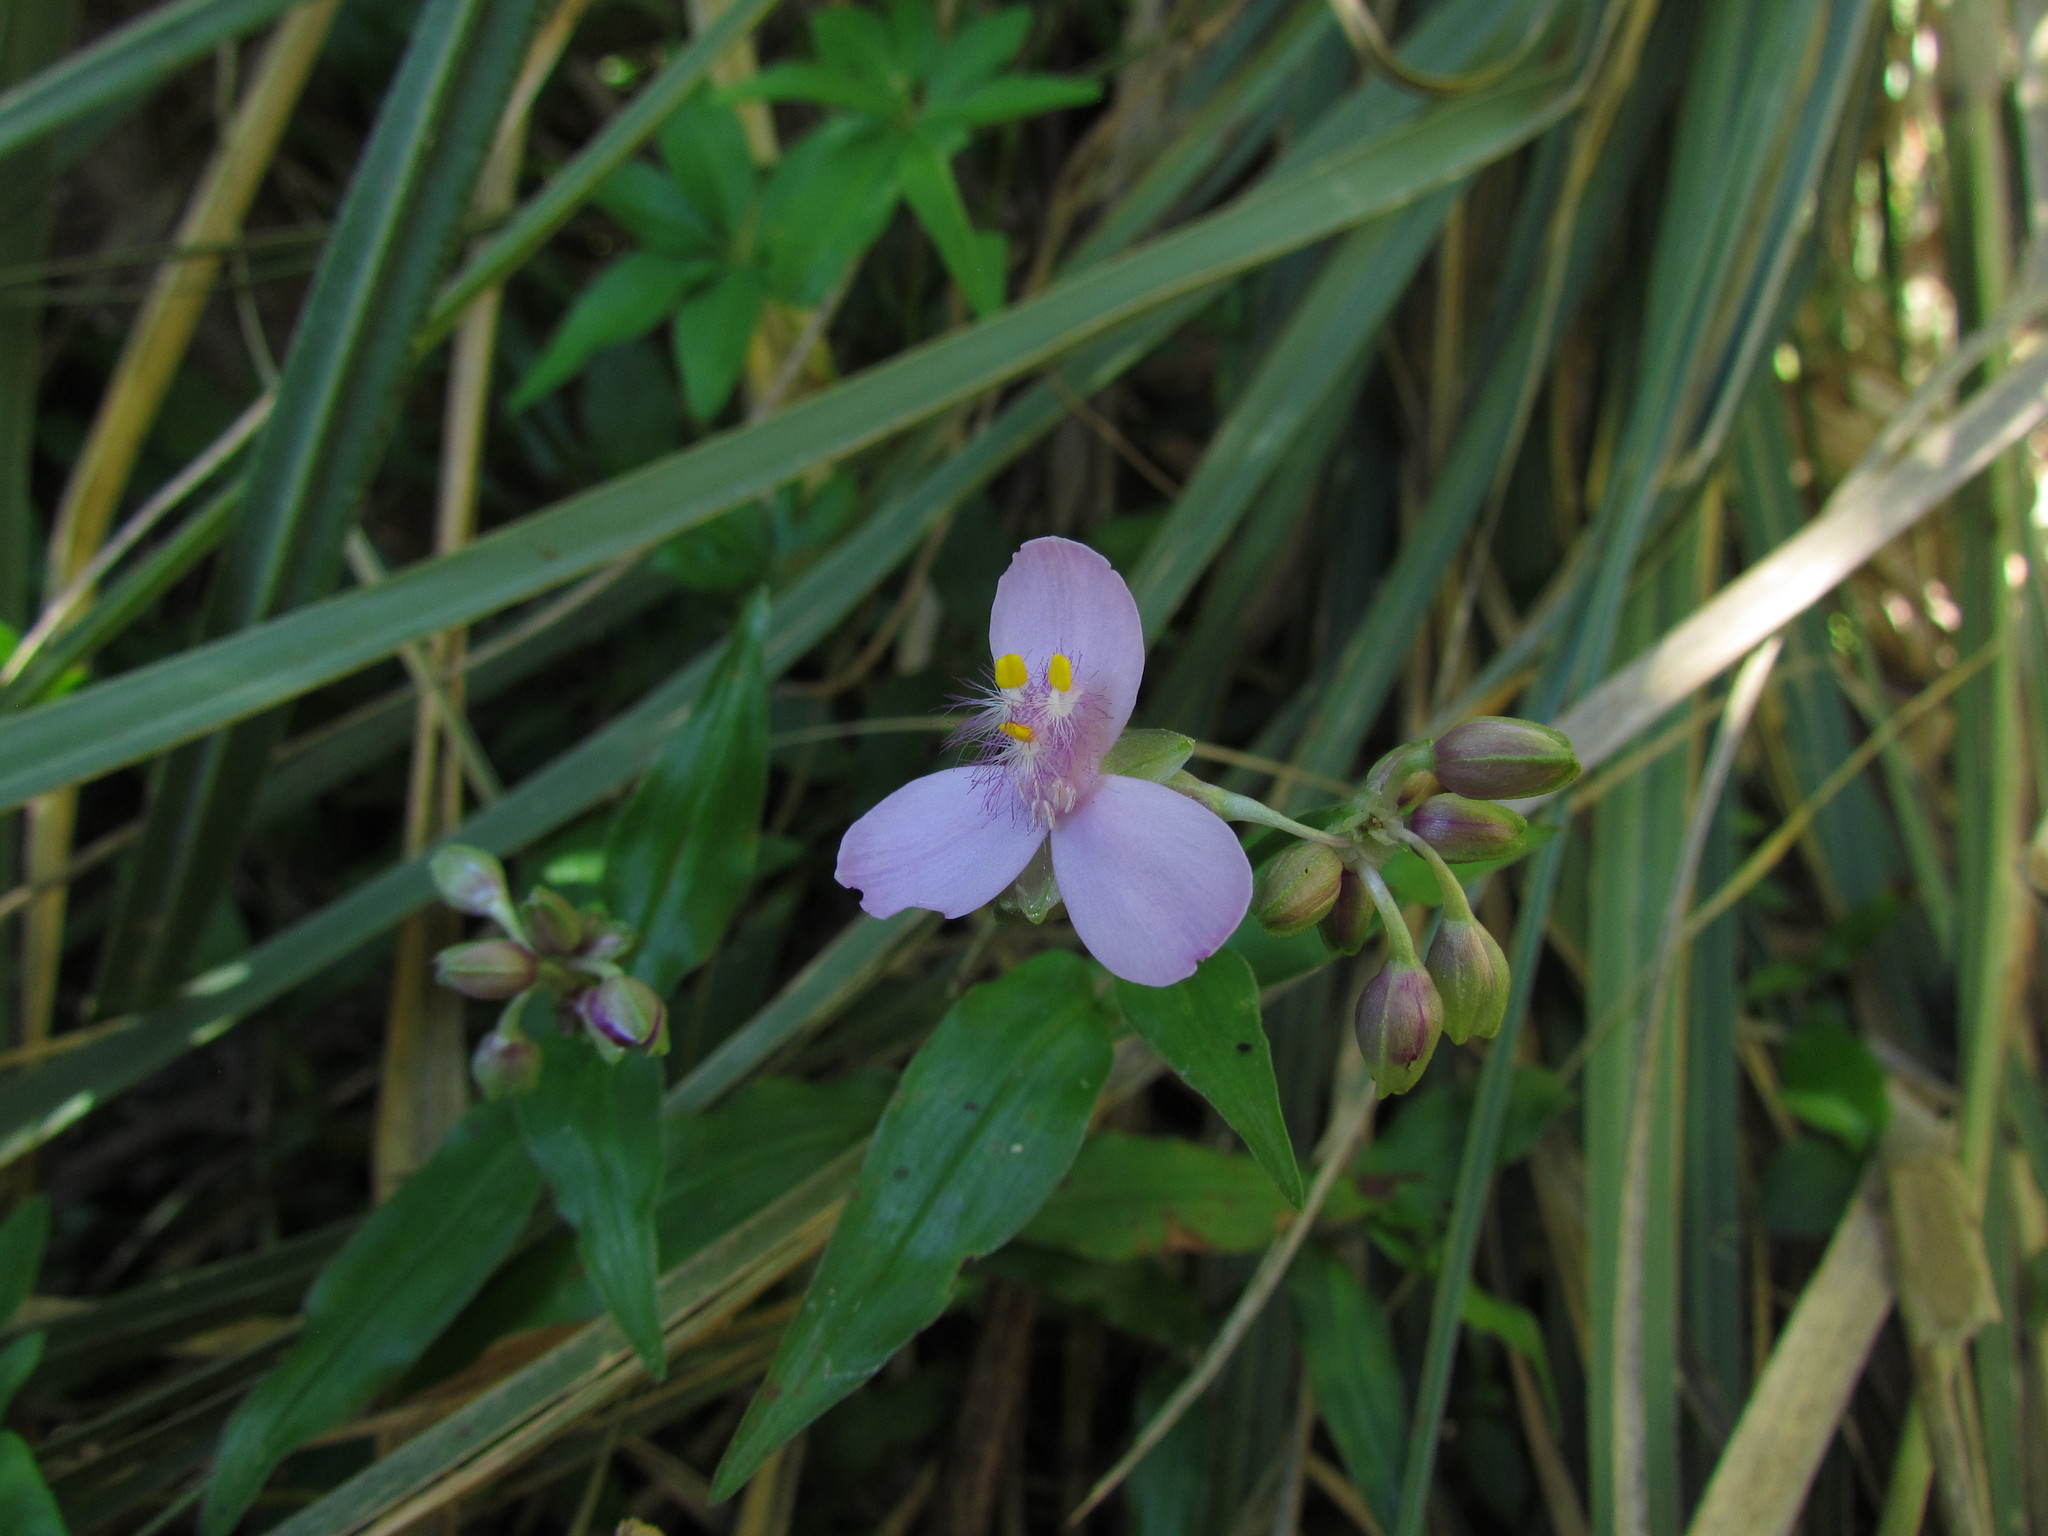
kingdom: Plantae
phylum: Tracheophyta
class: Liliopsida
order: Commelinales
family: Commelinaceae
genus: Callisia
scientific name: Callisia diuretica
